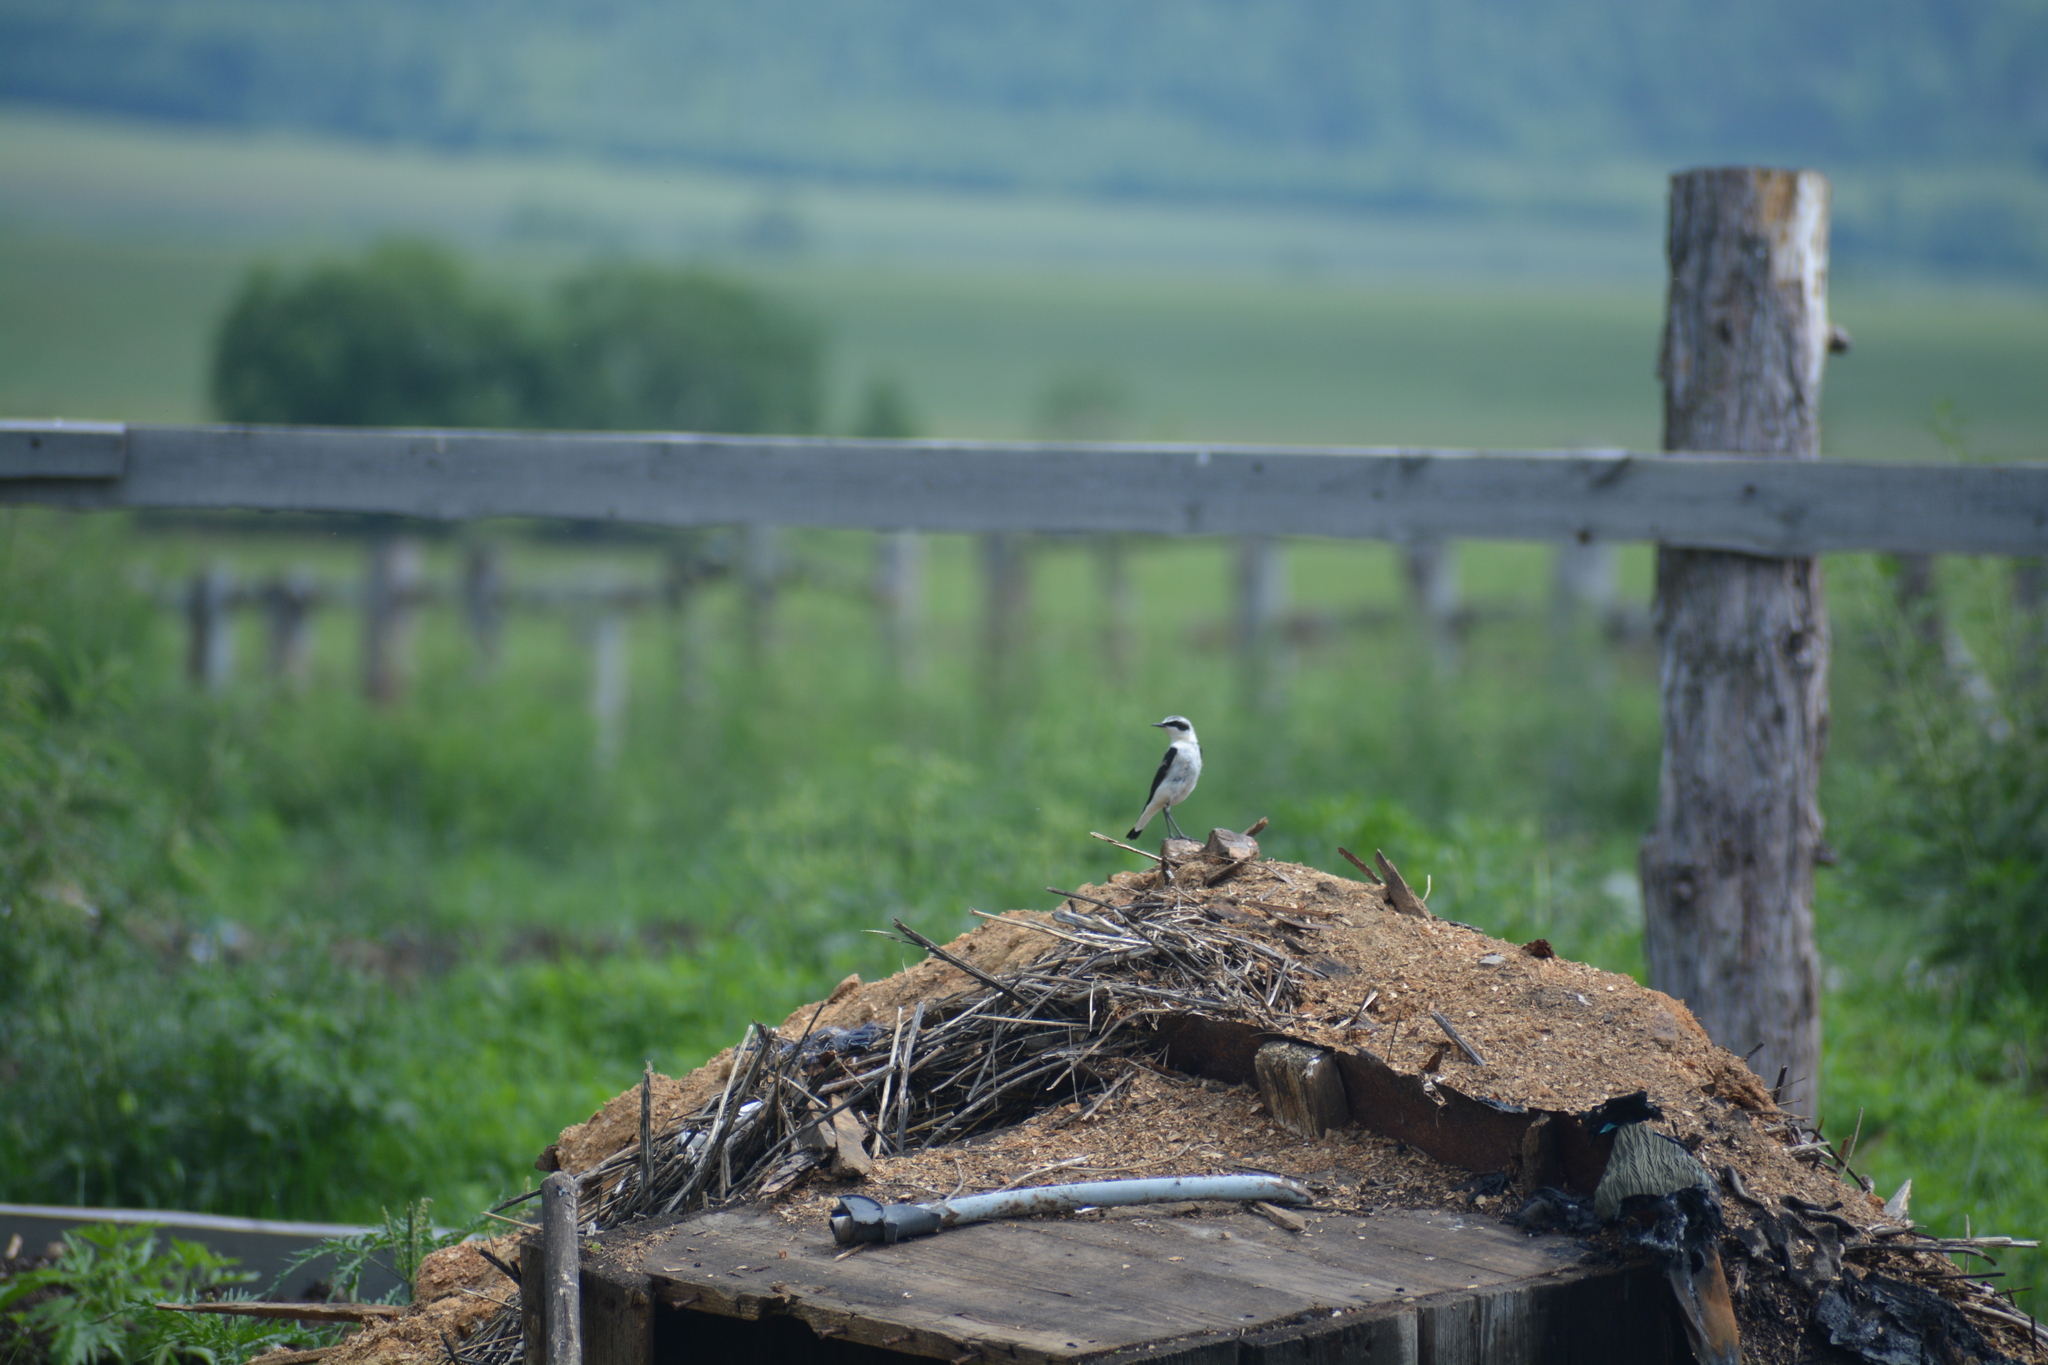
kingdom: Animalia
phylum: Chordata
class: Aves
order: Passeriformes
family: Muscicapidae
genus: Oenanthe
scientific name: Oenanthe oenanthe
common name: Northern wheatear
